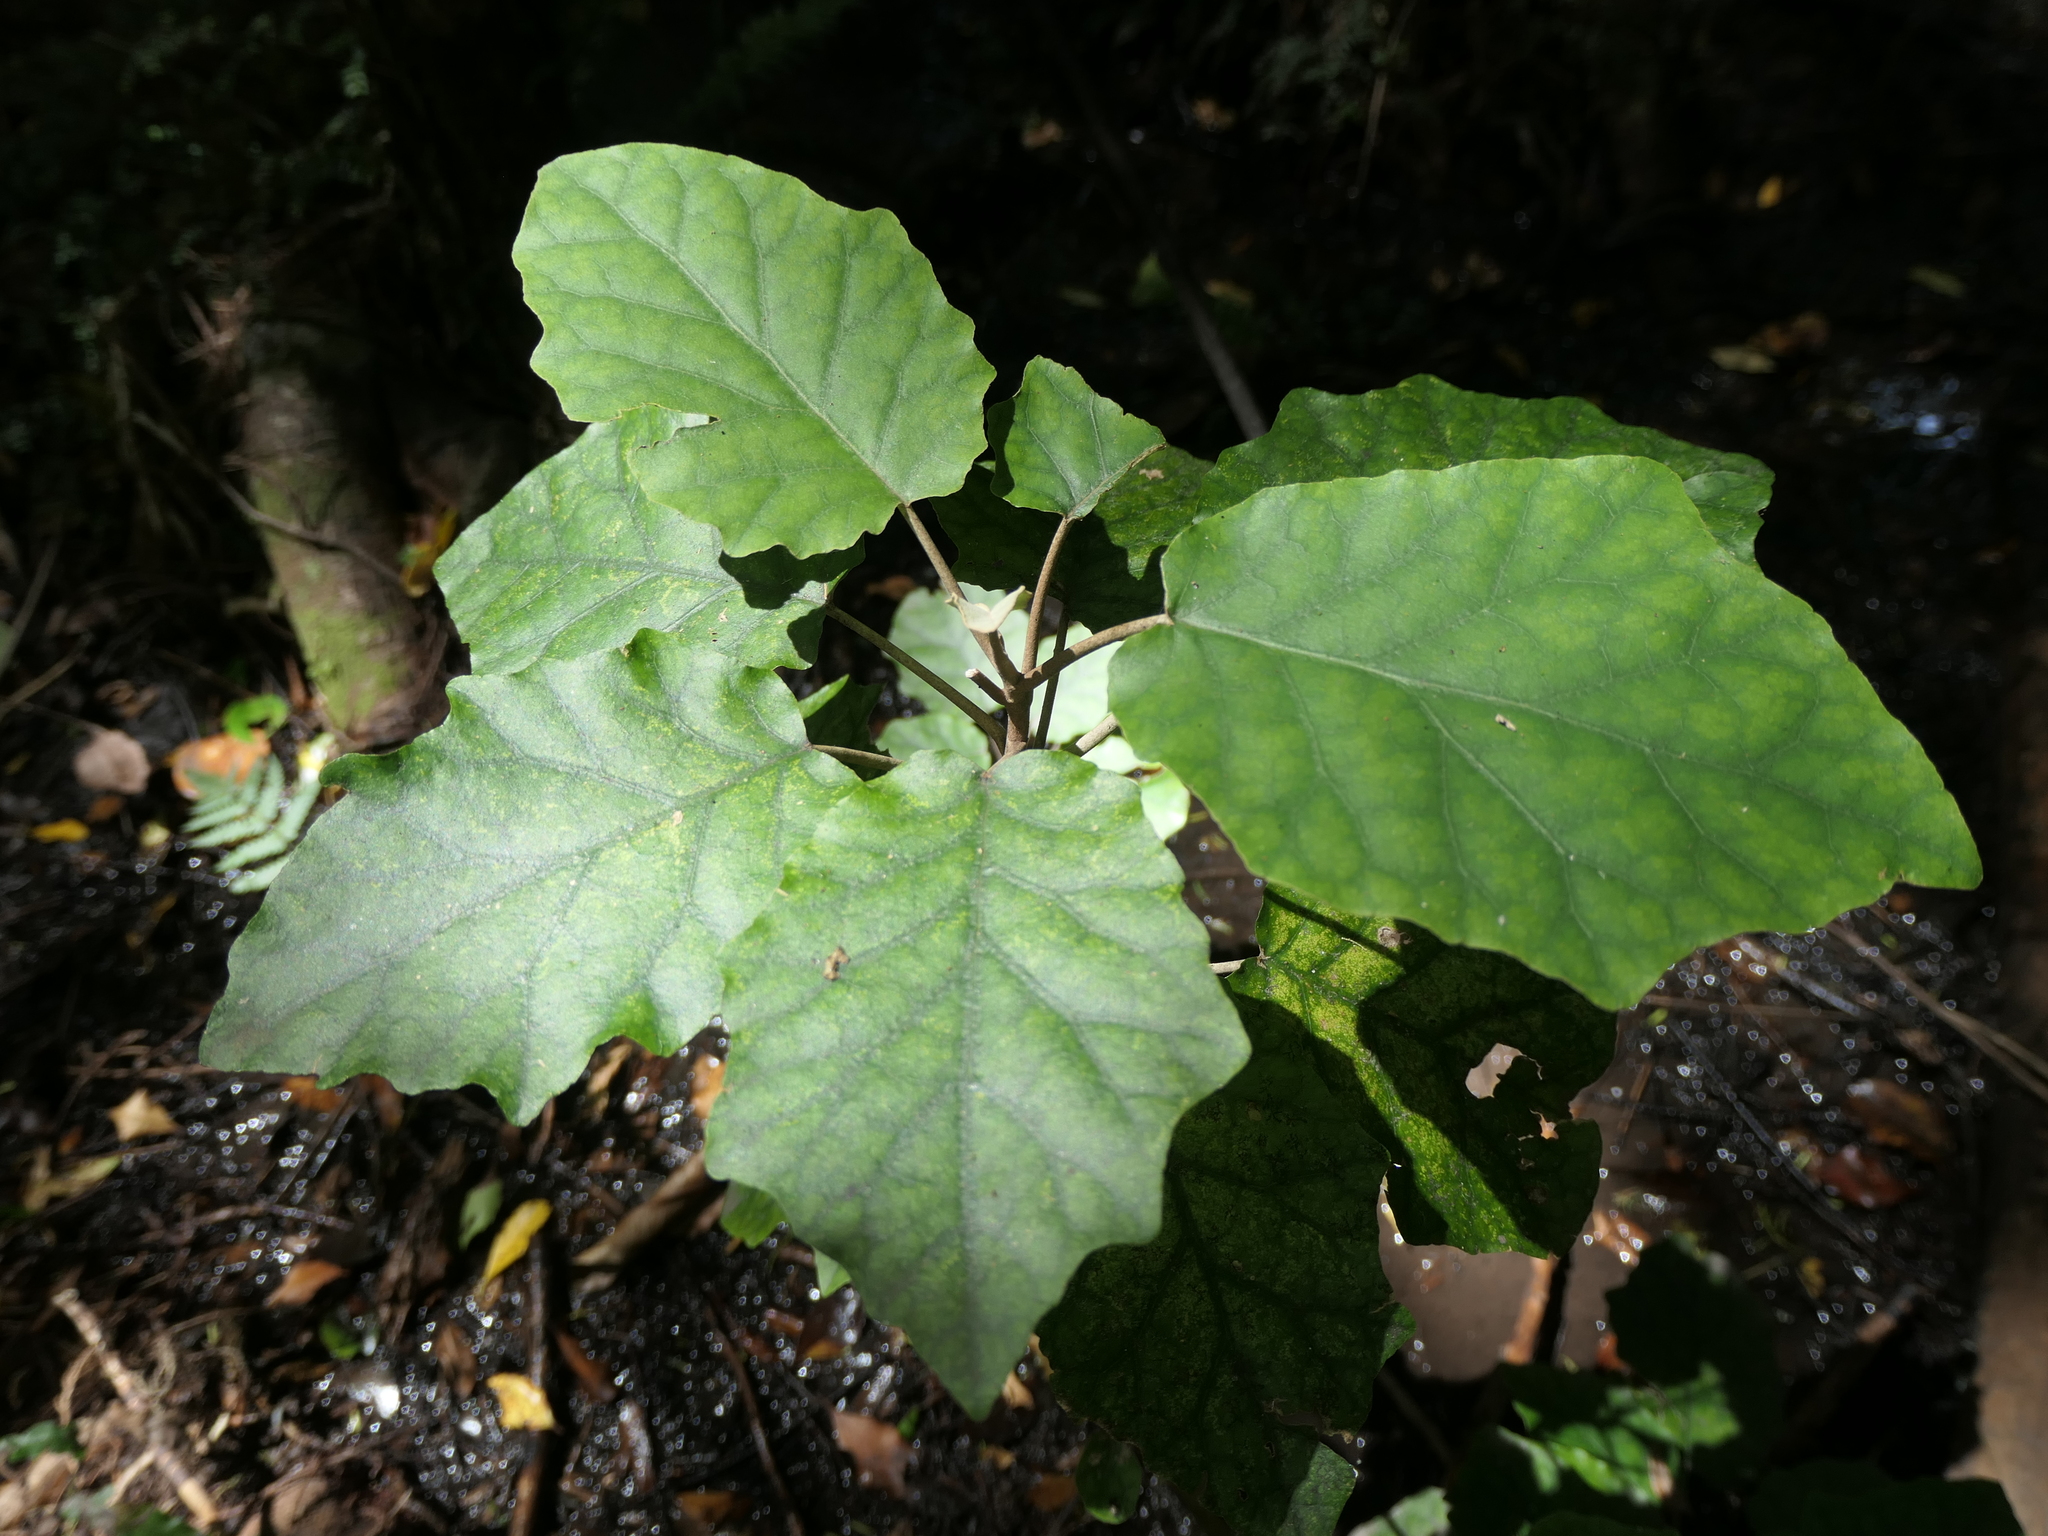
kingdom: Plantae
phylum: Tracheophyta
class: Magnoliopsida
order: Asterales
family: Asteraceae
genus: Brachyglottis
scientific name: Brachyglottis repanda
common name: Hedge ragwort
